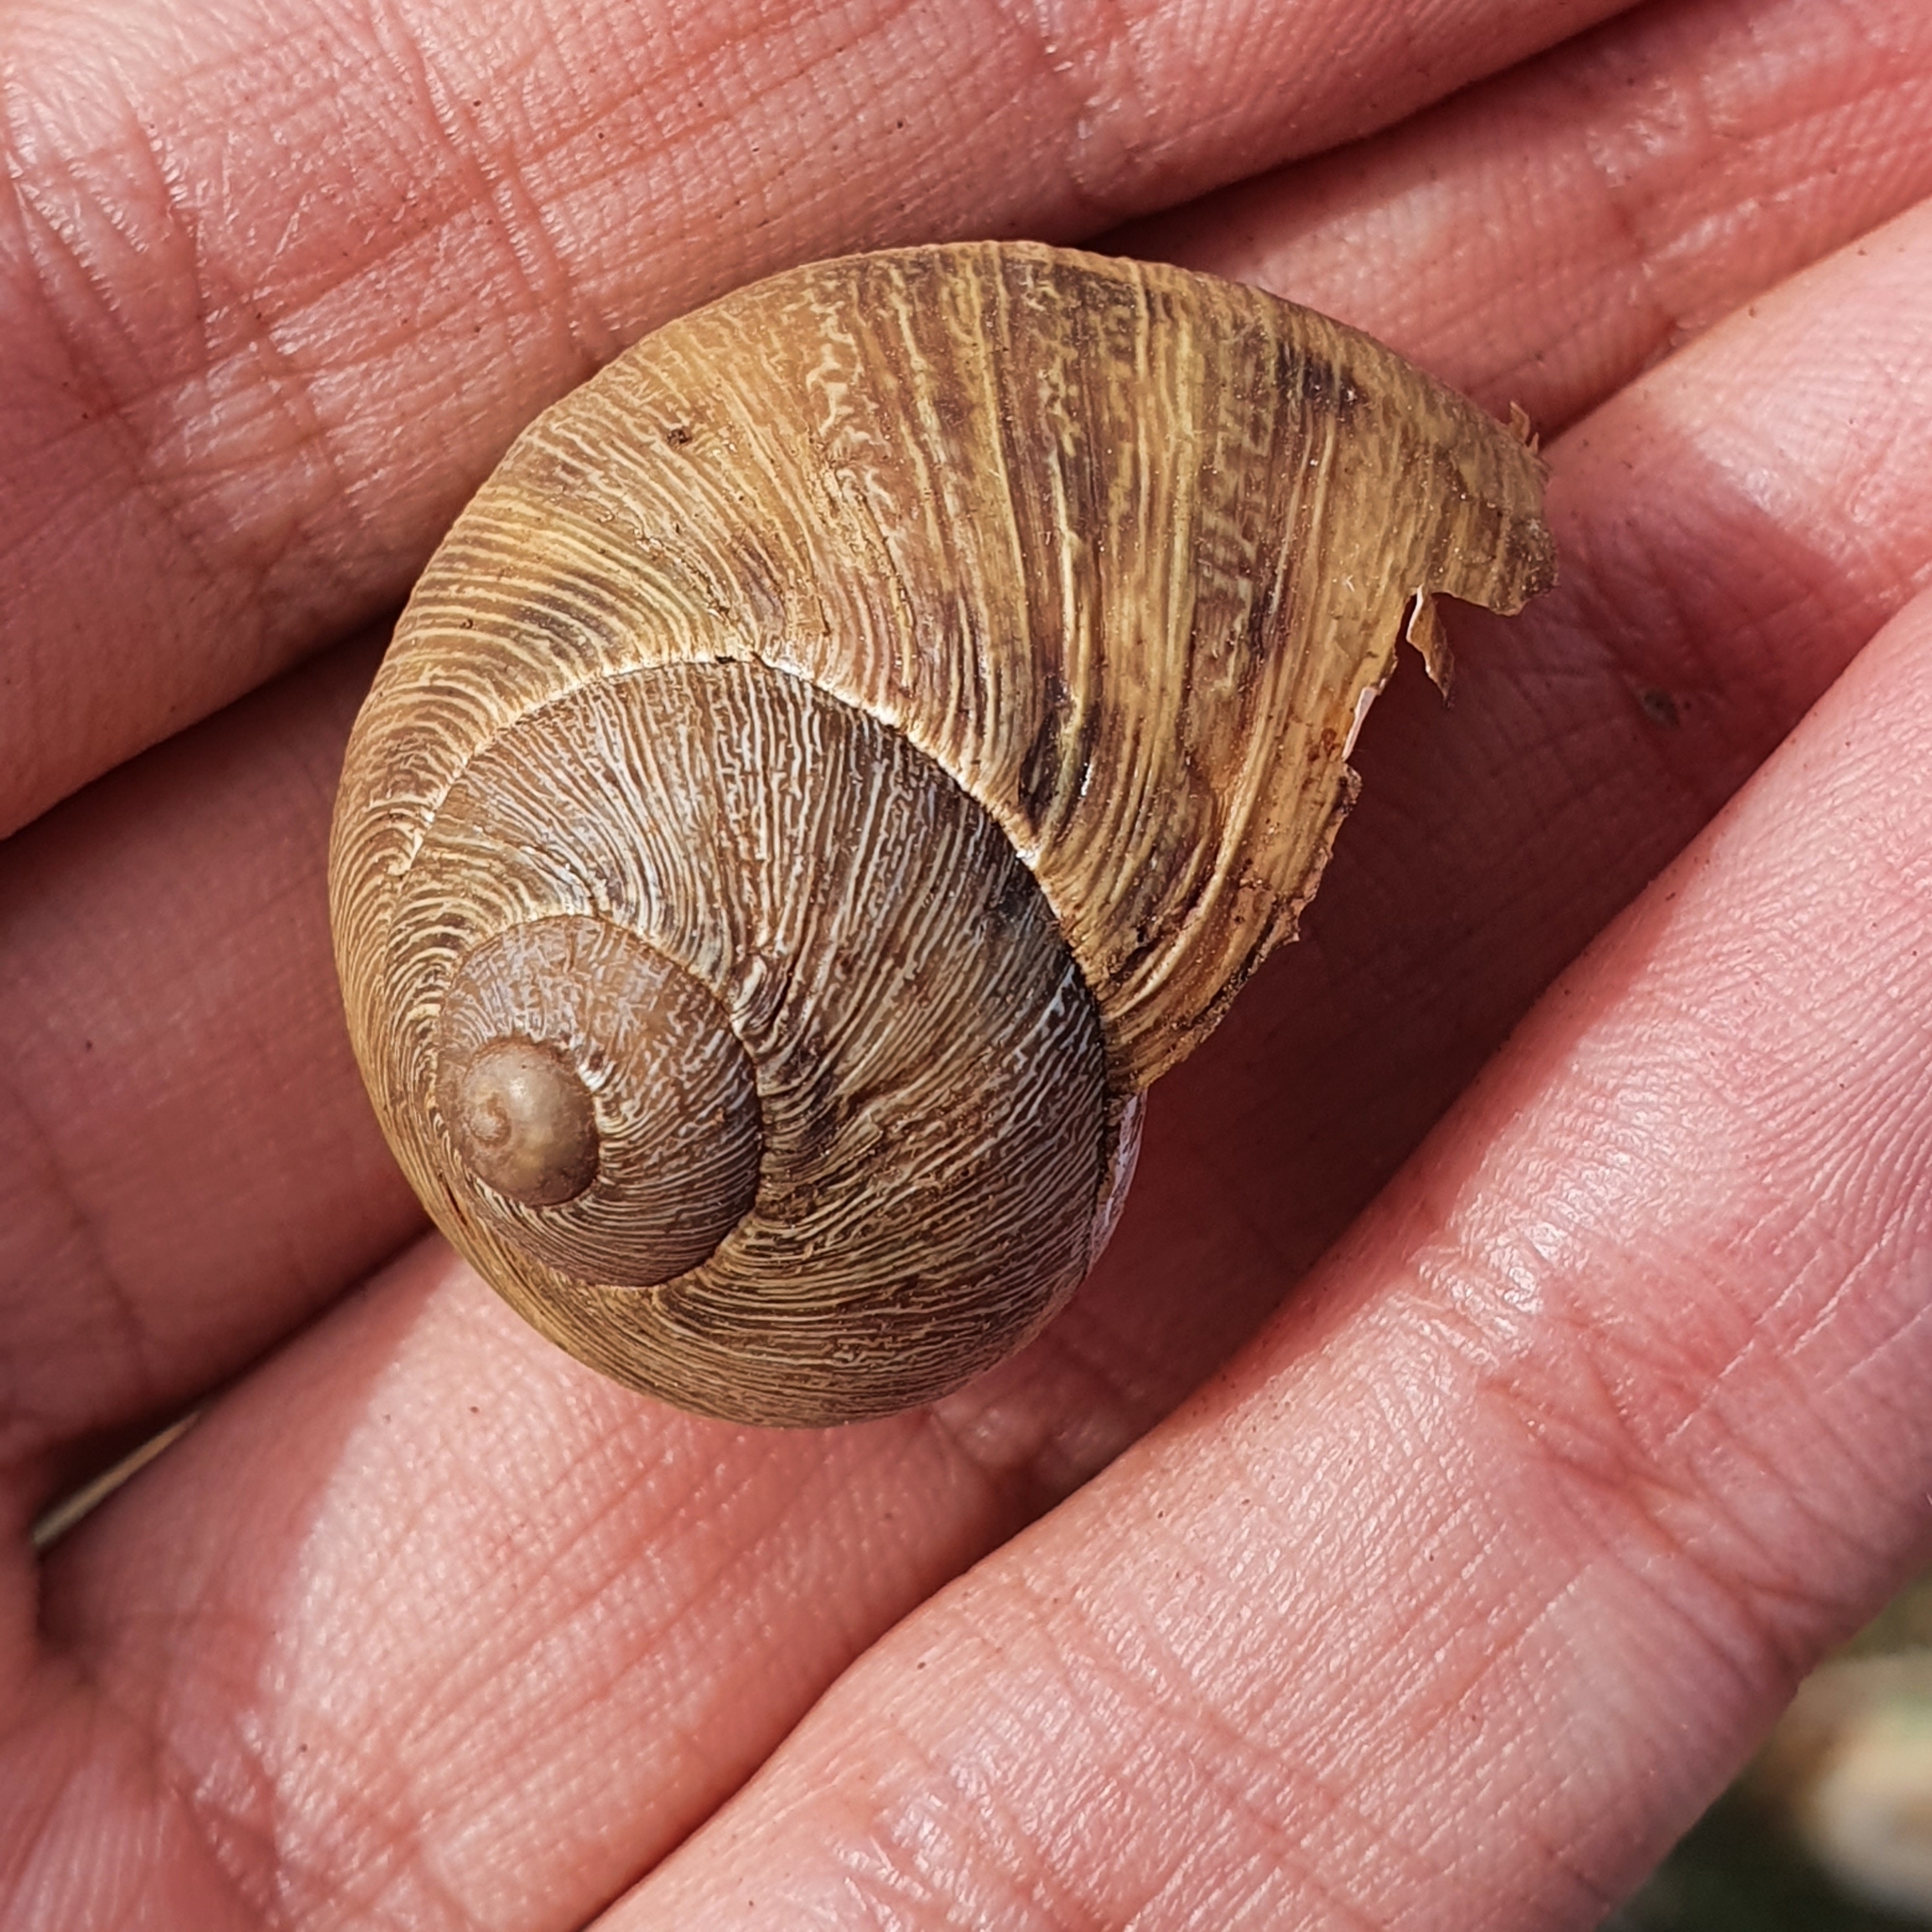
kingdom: Animalia
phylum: Mollusca
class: Gastropoda
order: Stylommatophora
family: Helicidae
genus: Cornu
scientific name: Cornu aspersum
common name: Brown garden snail
